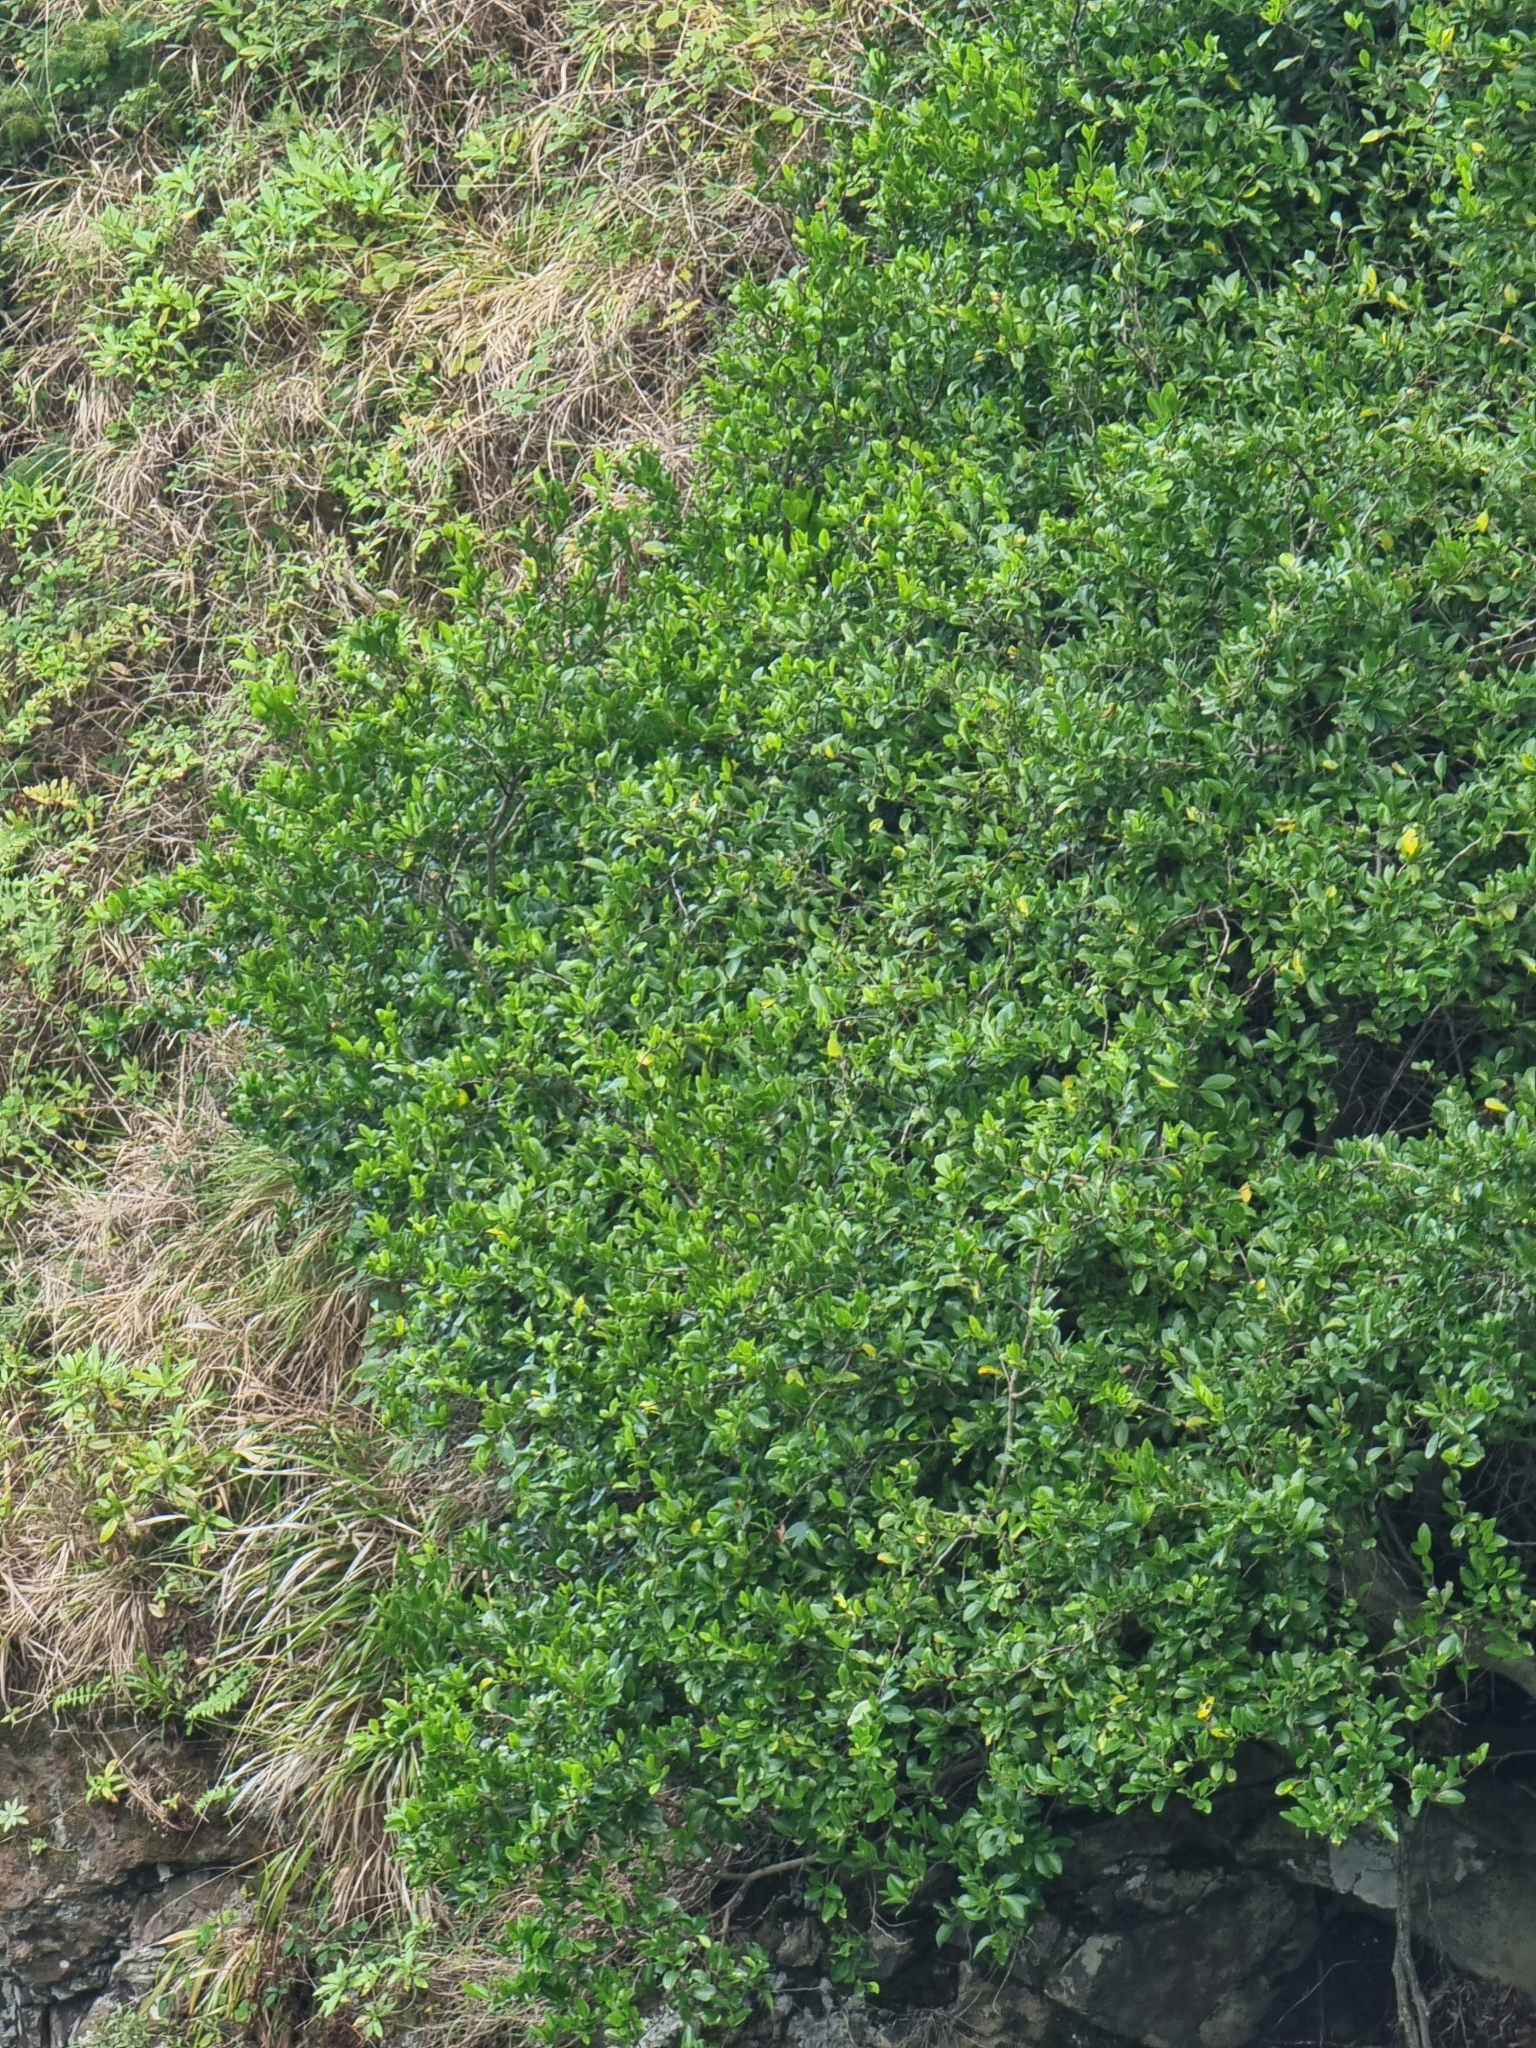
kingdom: Plantae
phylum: Tracheophyta
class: Magnoliopsida
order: Celastrales
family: Celastraceae
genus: Gymnosporia
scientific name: Gymnosporia dryandri
